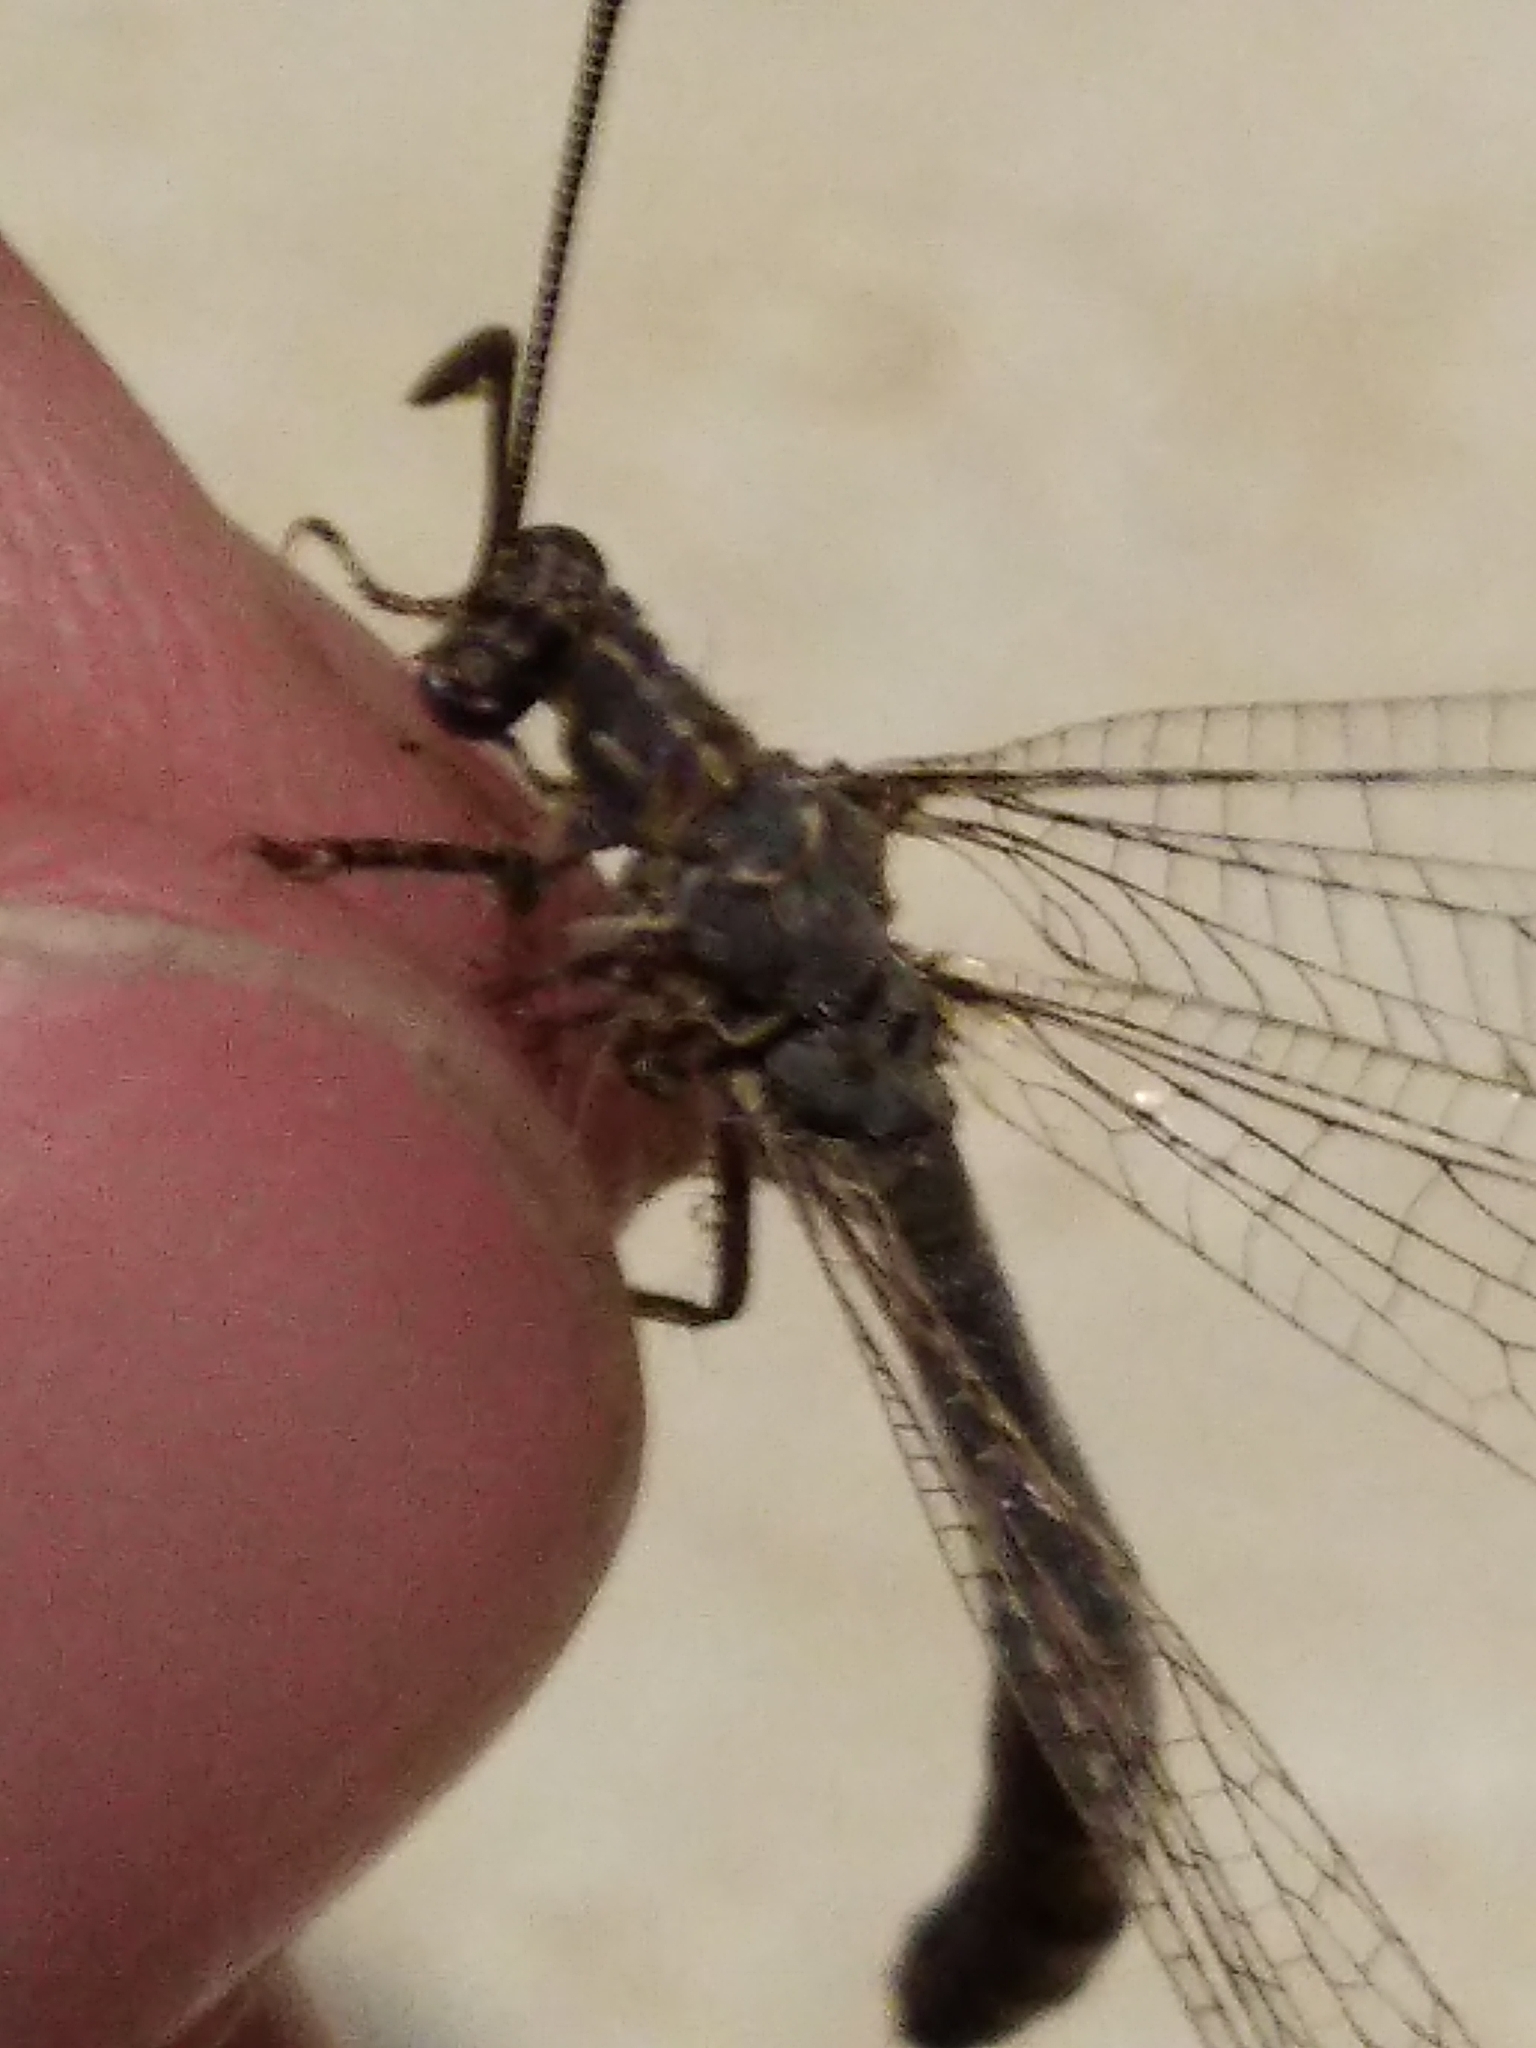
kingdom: Animalia
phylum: Arthropoda
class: Insecta
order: Neuroptera
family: Myrmeleontidae
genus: Distoleon
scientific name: Distoleon tetragrammicus
